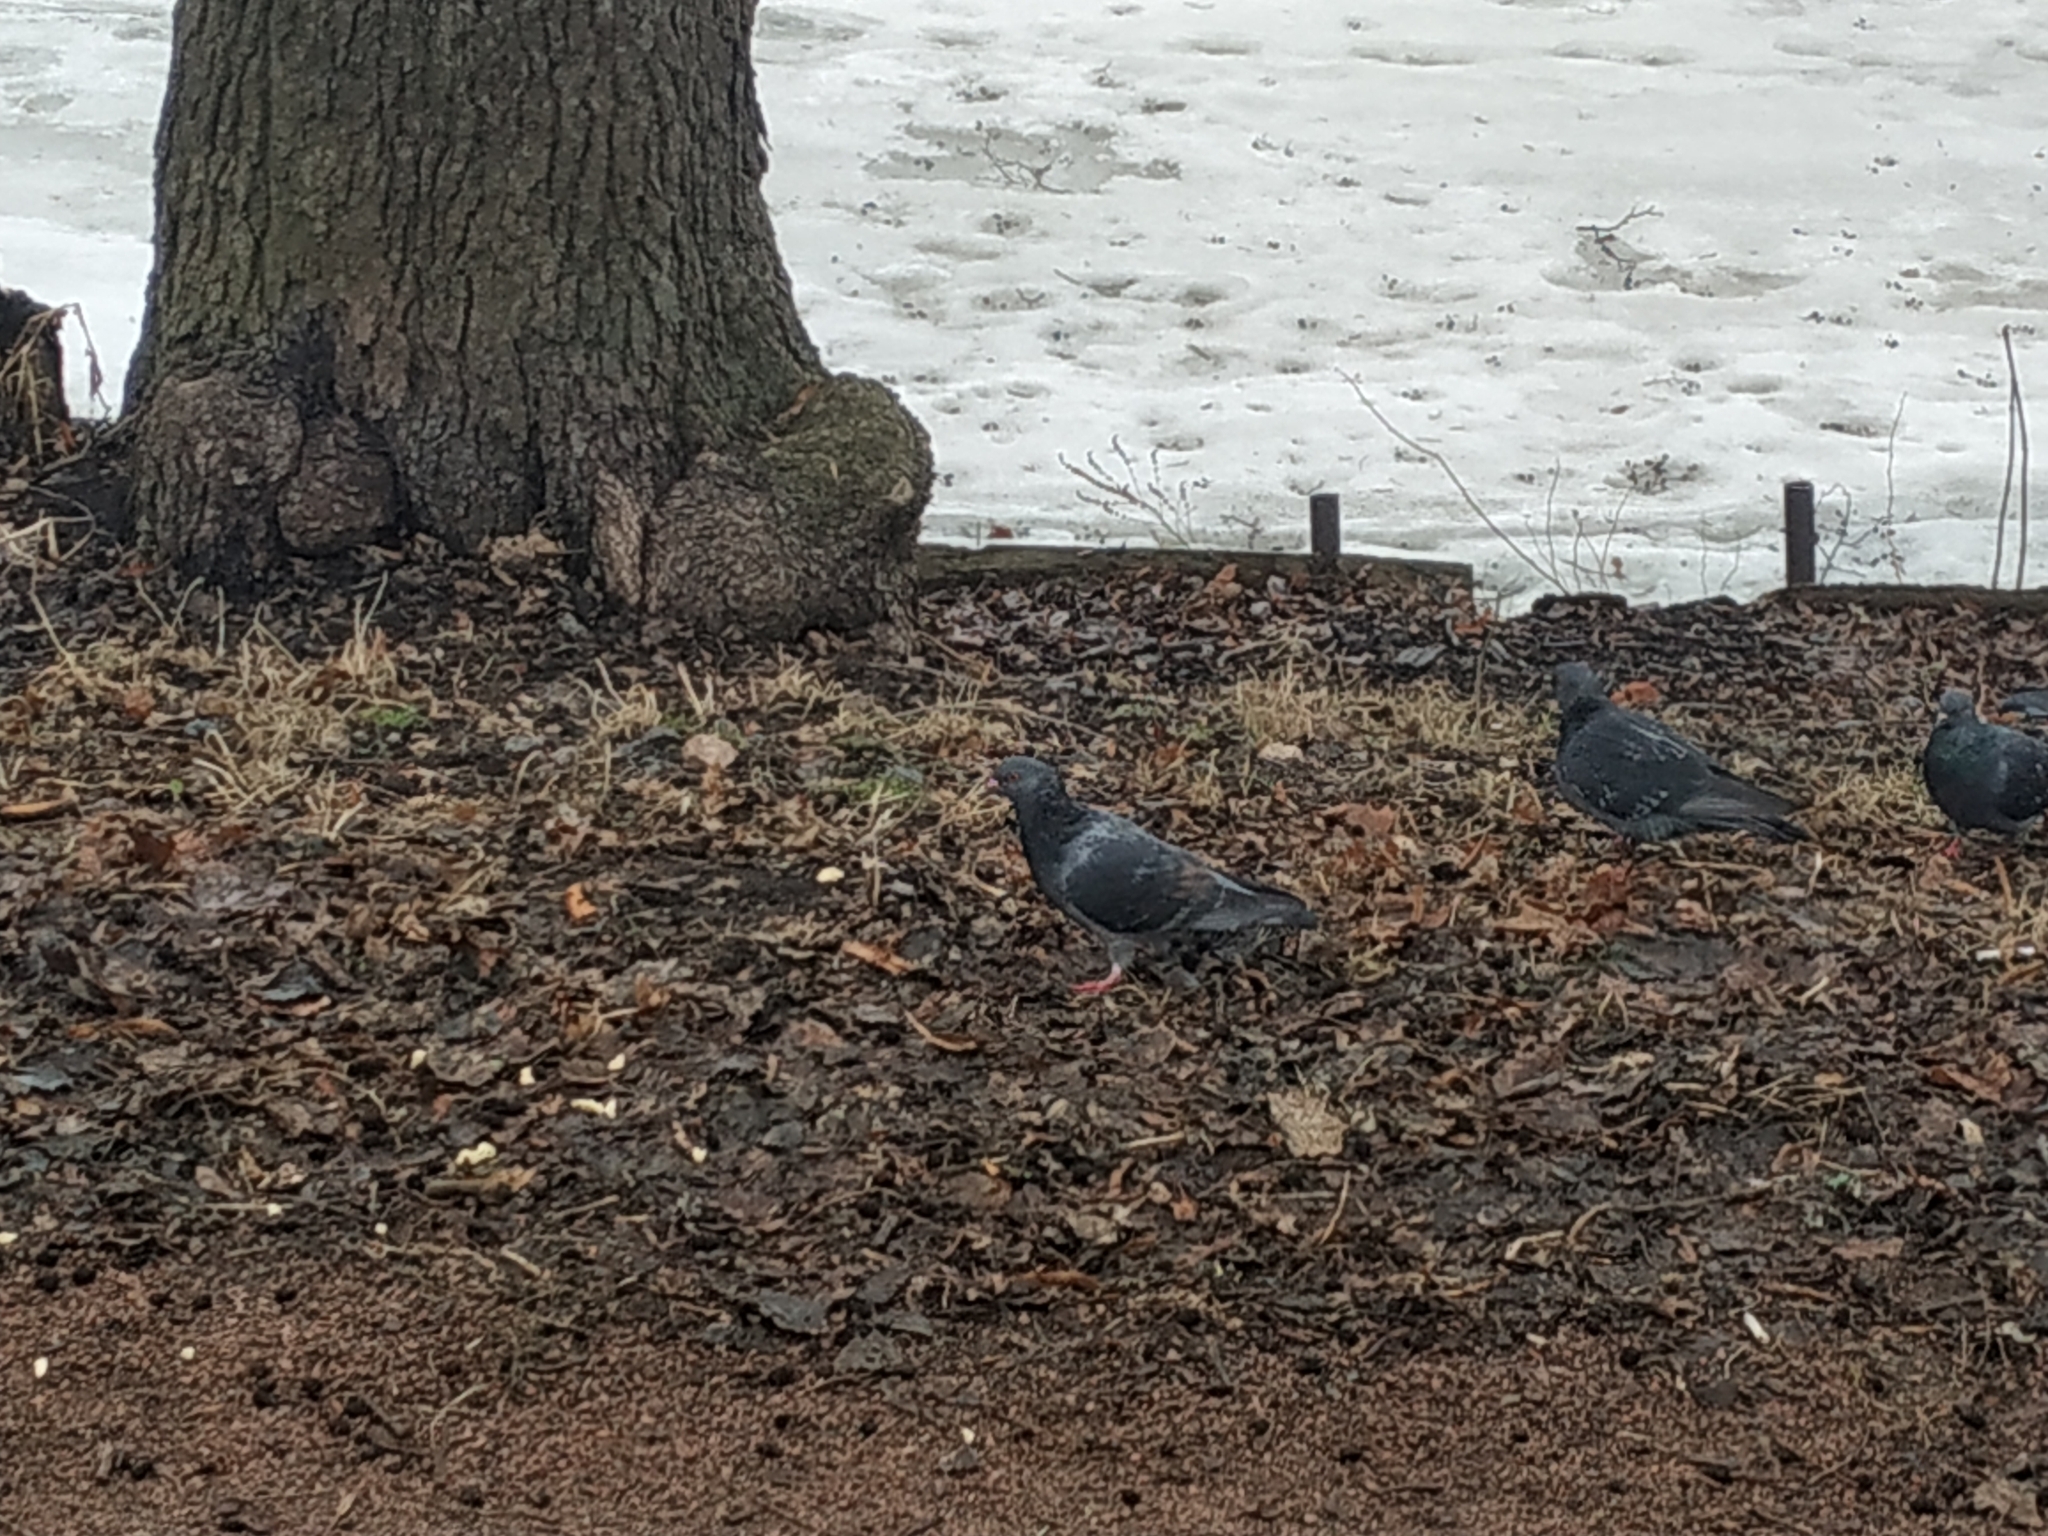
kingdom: Animalia
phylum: Chordata
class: Aves
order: Columbiformes
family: Columbidae
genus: Columba
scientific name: Columba livia
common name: Rock pigeon
